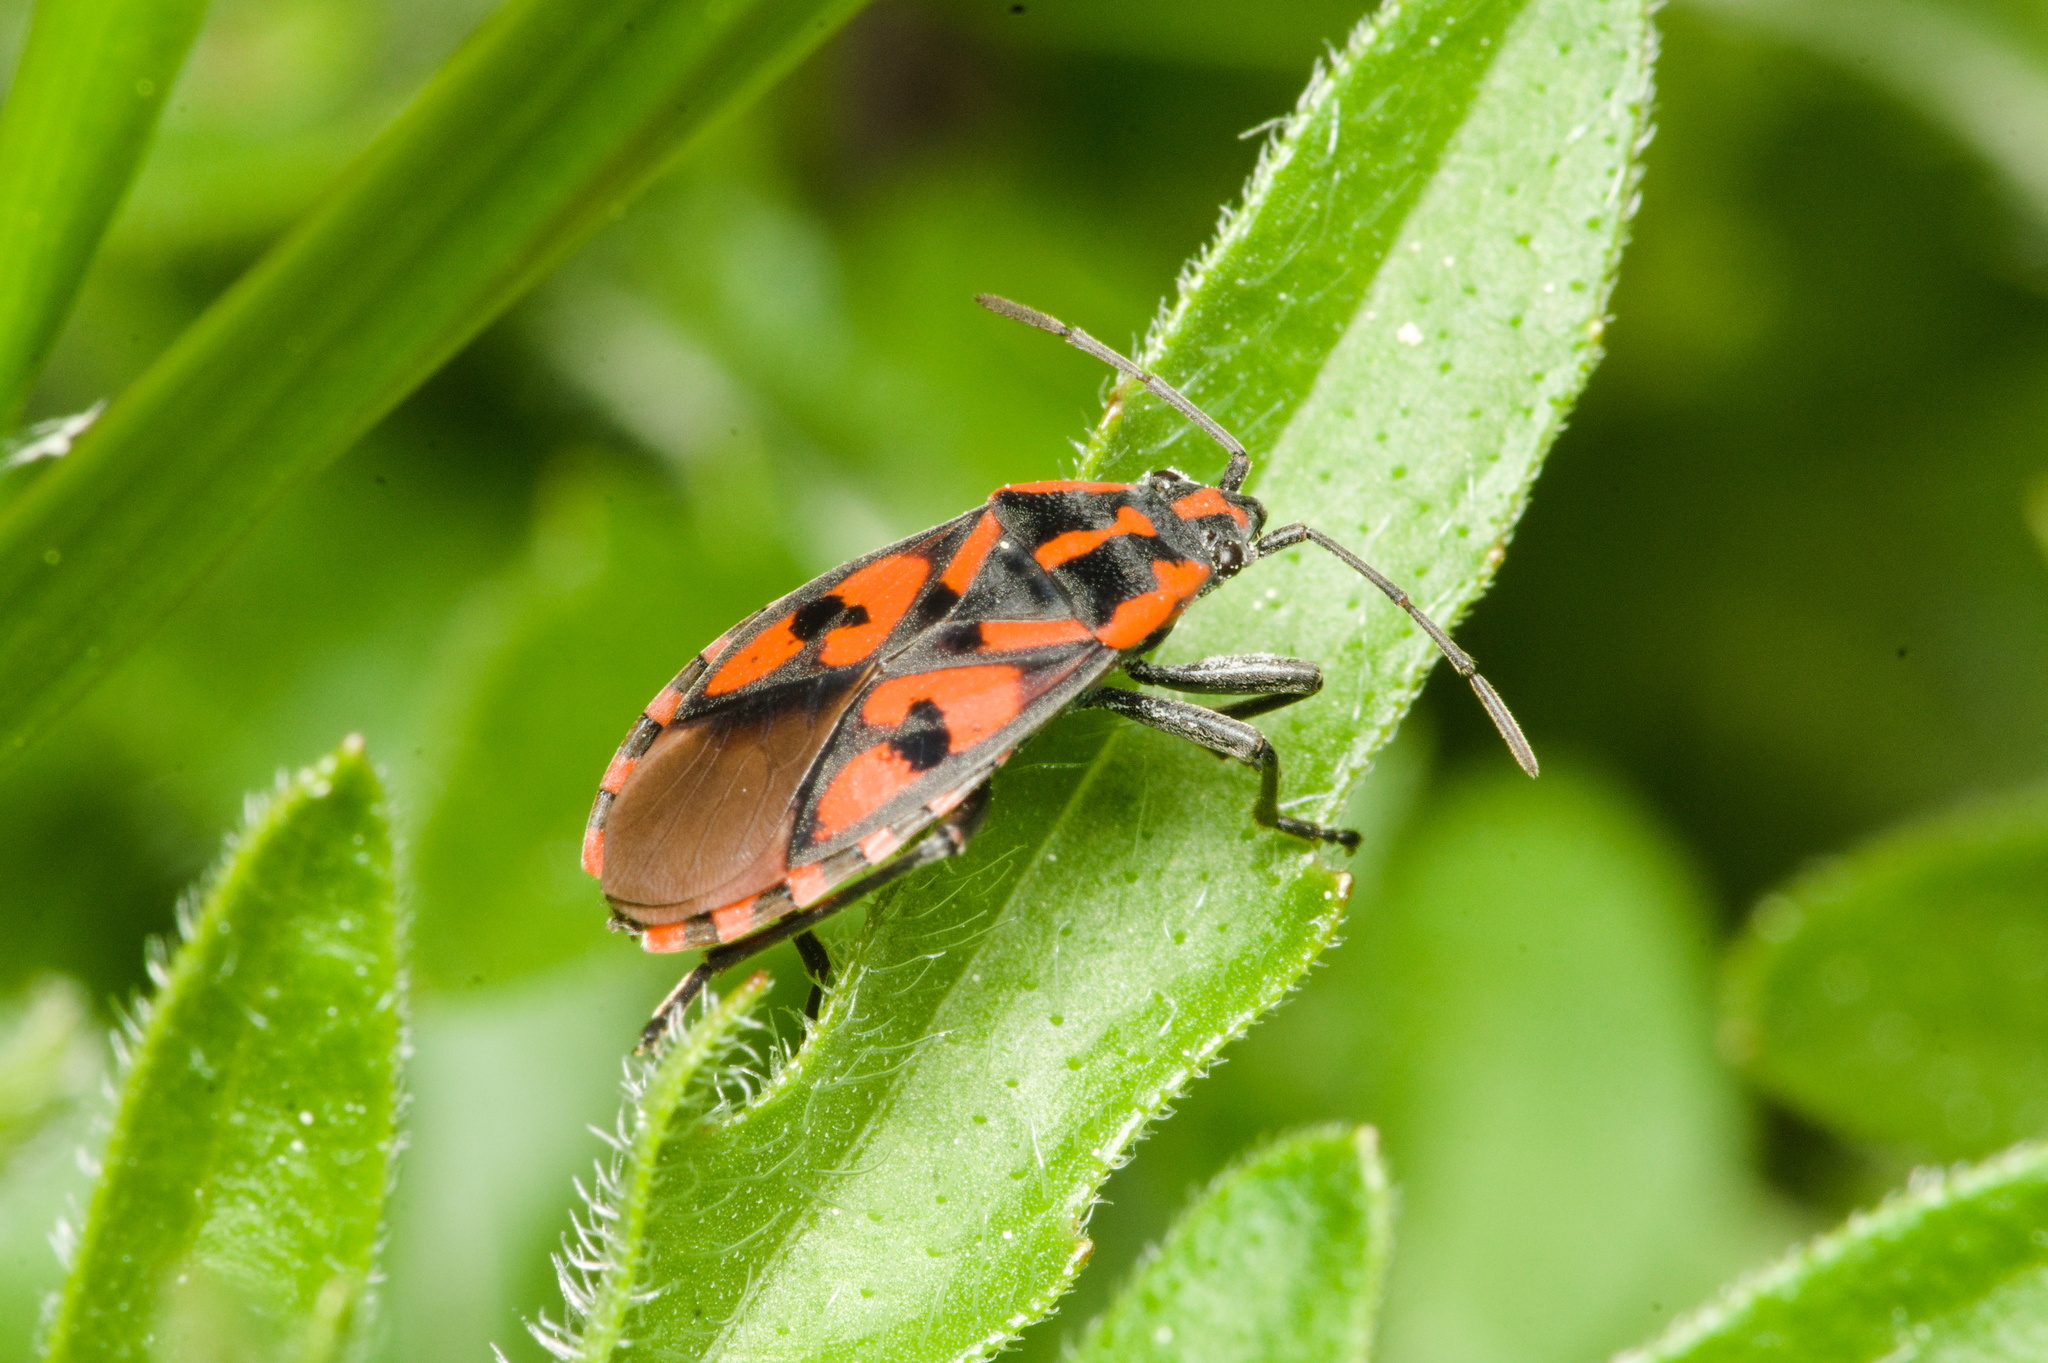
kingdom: Animalia
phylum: Arthropoda
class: Insecta
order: Hemiptera
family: Lygaeidae
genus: Spilostethus
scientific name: Spilostethus saxatilis
